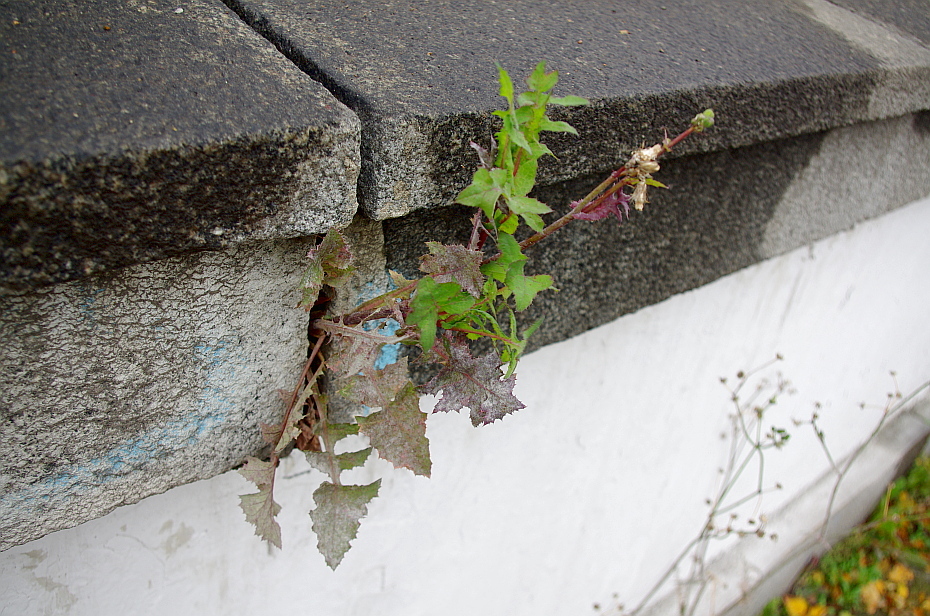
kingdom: Plantae
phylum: Tracheophyta
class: Magnoliopsida
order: Asterales
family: Asteraceae
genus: Sonchus
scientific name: Sonchus oleraceus
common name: Common sowthistle
